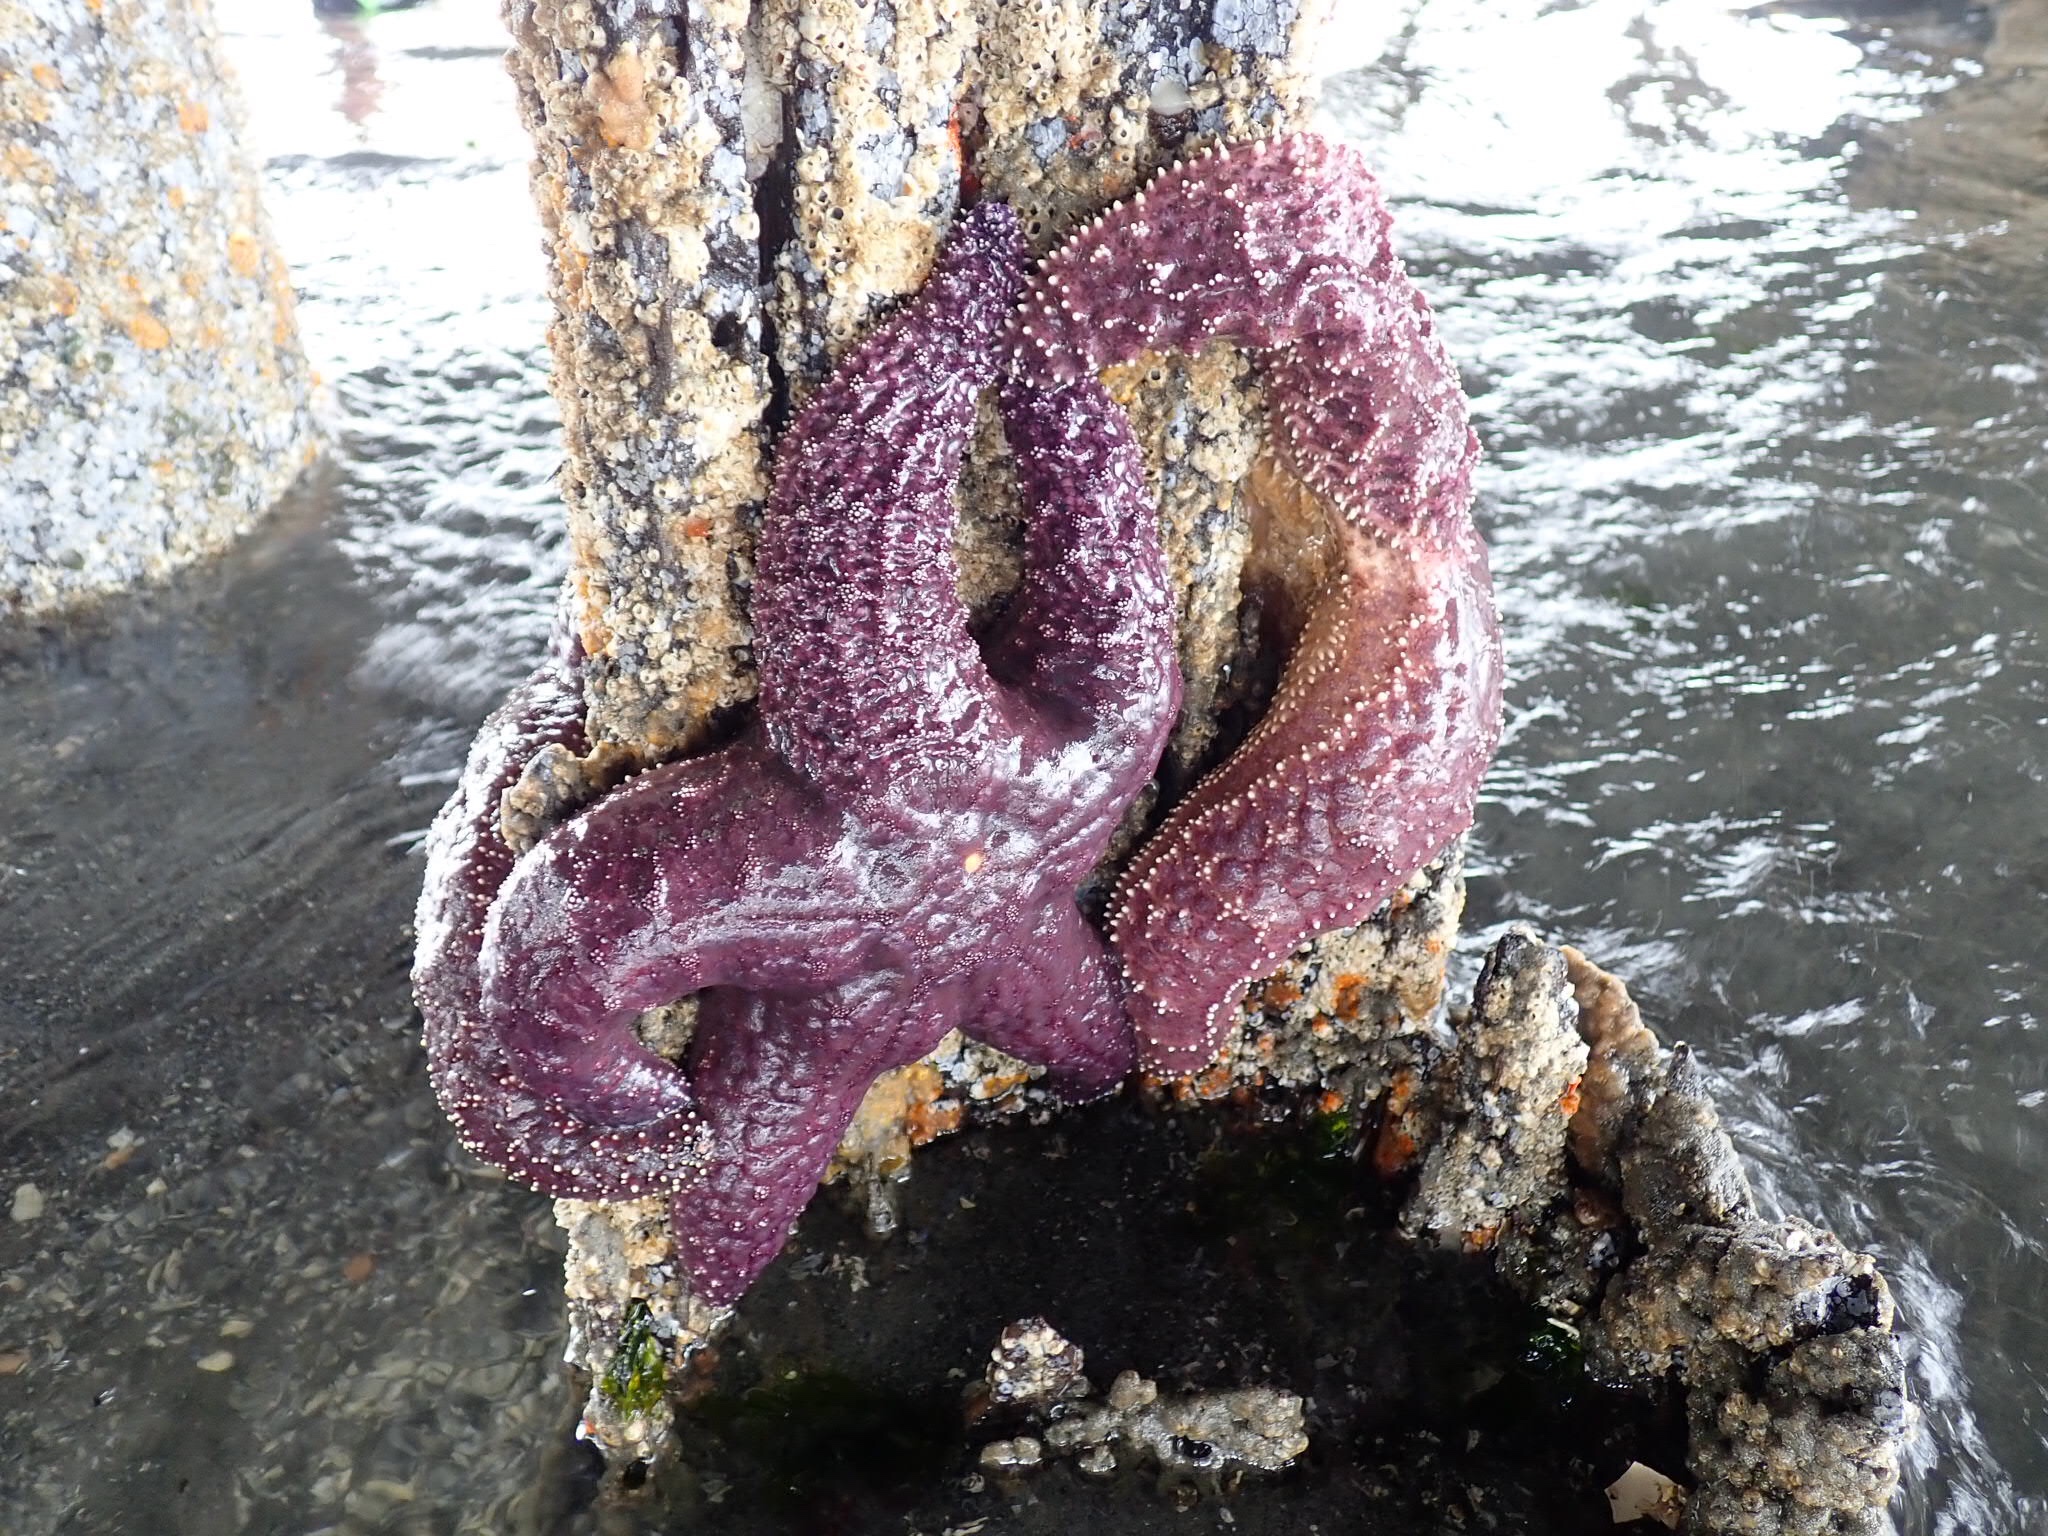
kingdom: Animalia
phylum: Echinodermata
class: Asteroidea
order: Forcipulatida
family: Asteriidae
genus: Pisaster
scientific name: Pisaster ochraceus
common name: Ochre stars
